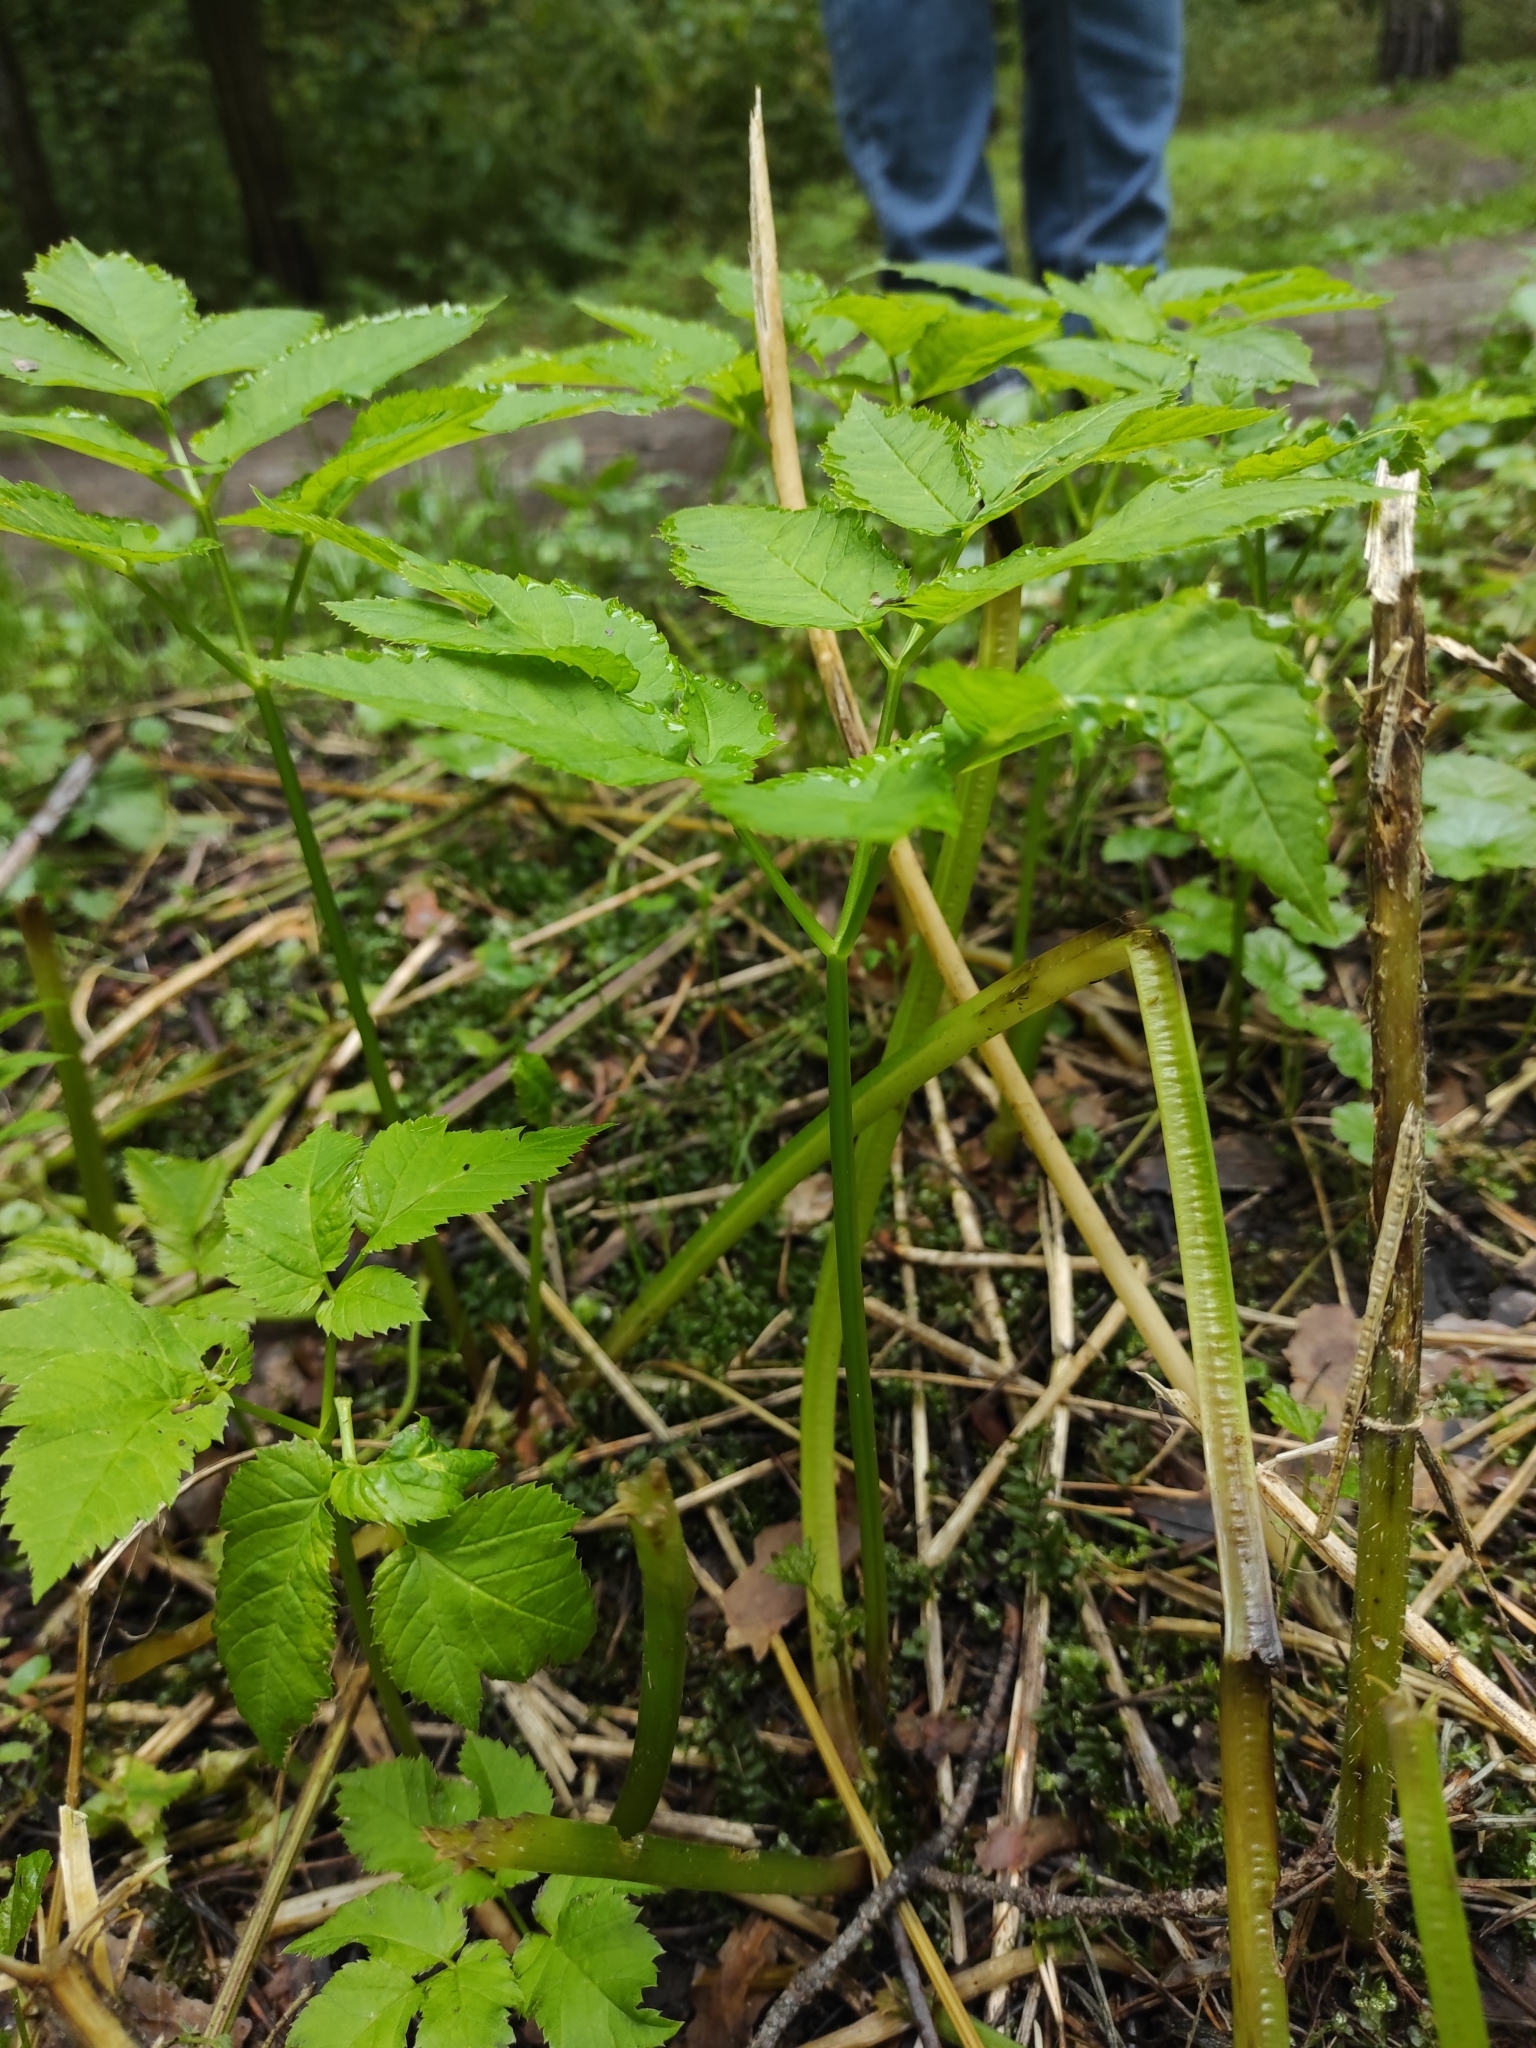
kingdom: Plantae
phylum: Tracheophyta
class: Magnoliopsida
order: Apiales
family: Apiaceae
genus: Aegopodium
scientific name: Aegopodium podagraria
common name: Ground-elder
